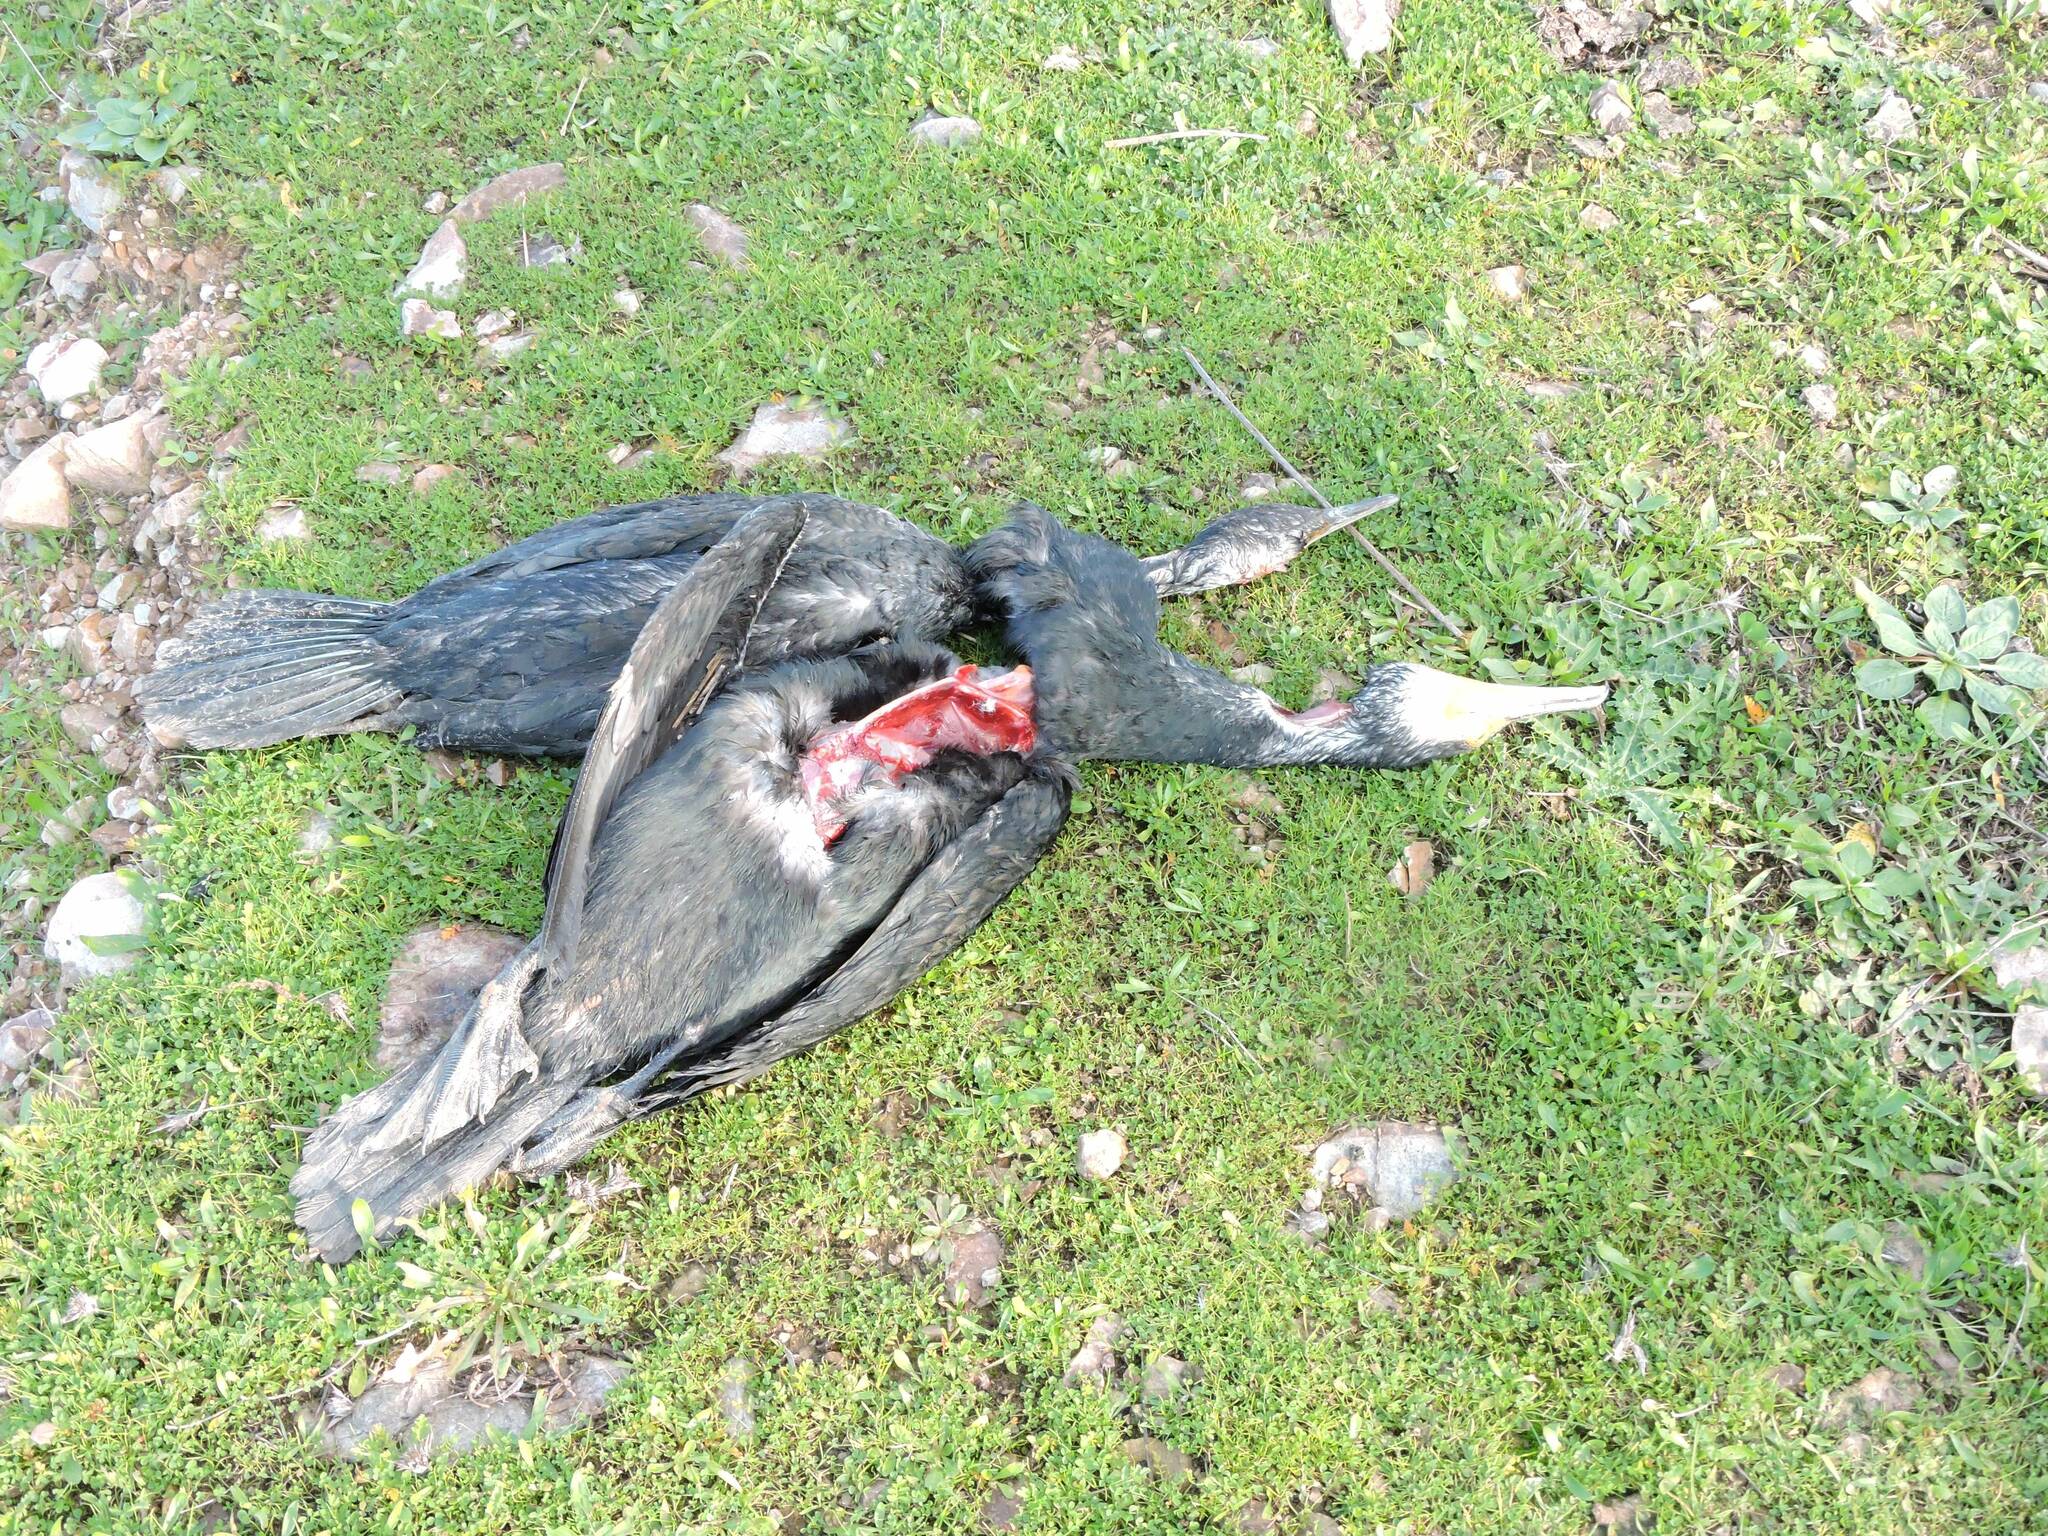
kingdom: Animalia
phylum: Chordata
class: Aves
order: Suliformes
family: Phalacrocoracidae
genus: Phalacrocorax
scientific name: Phalacrocorax carbo
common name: Great cormorant
